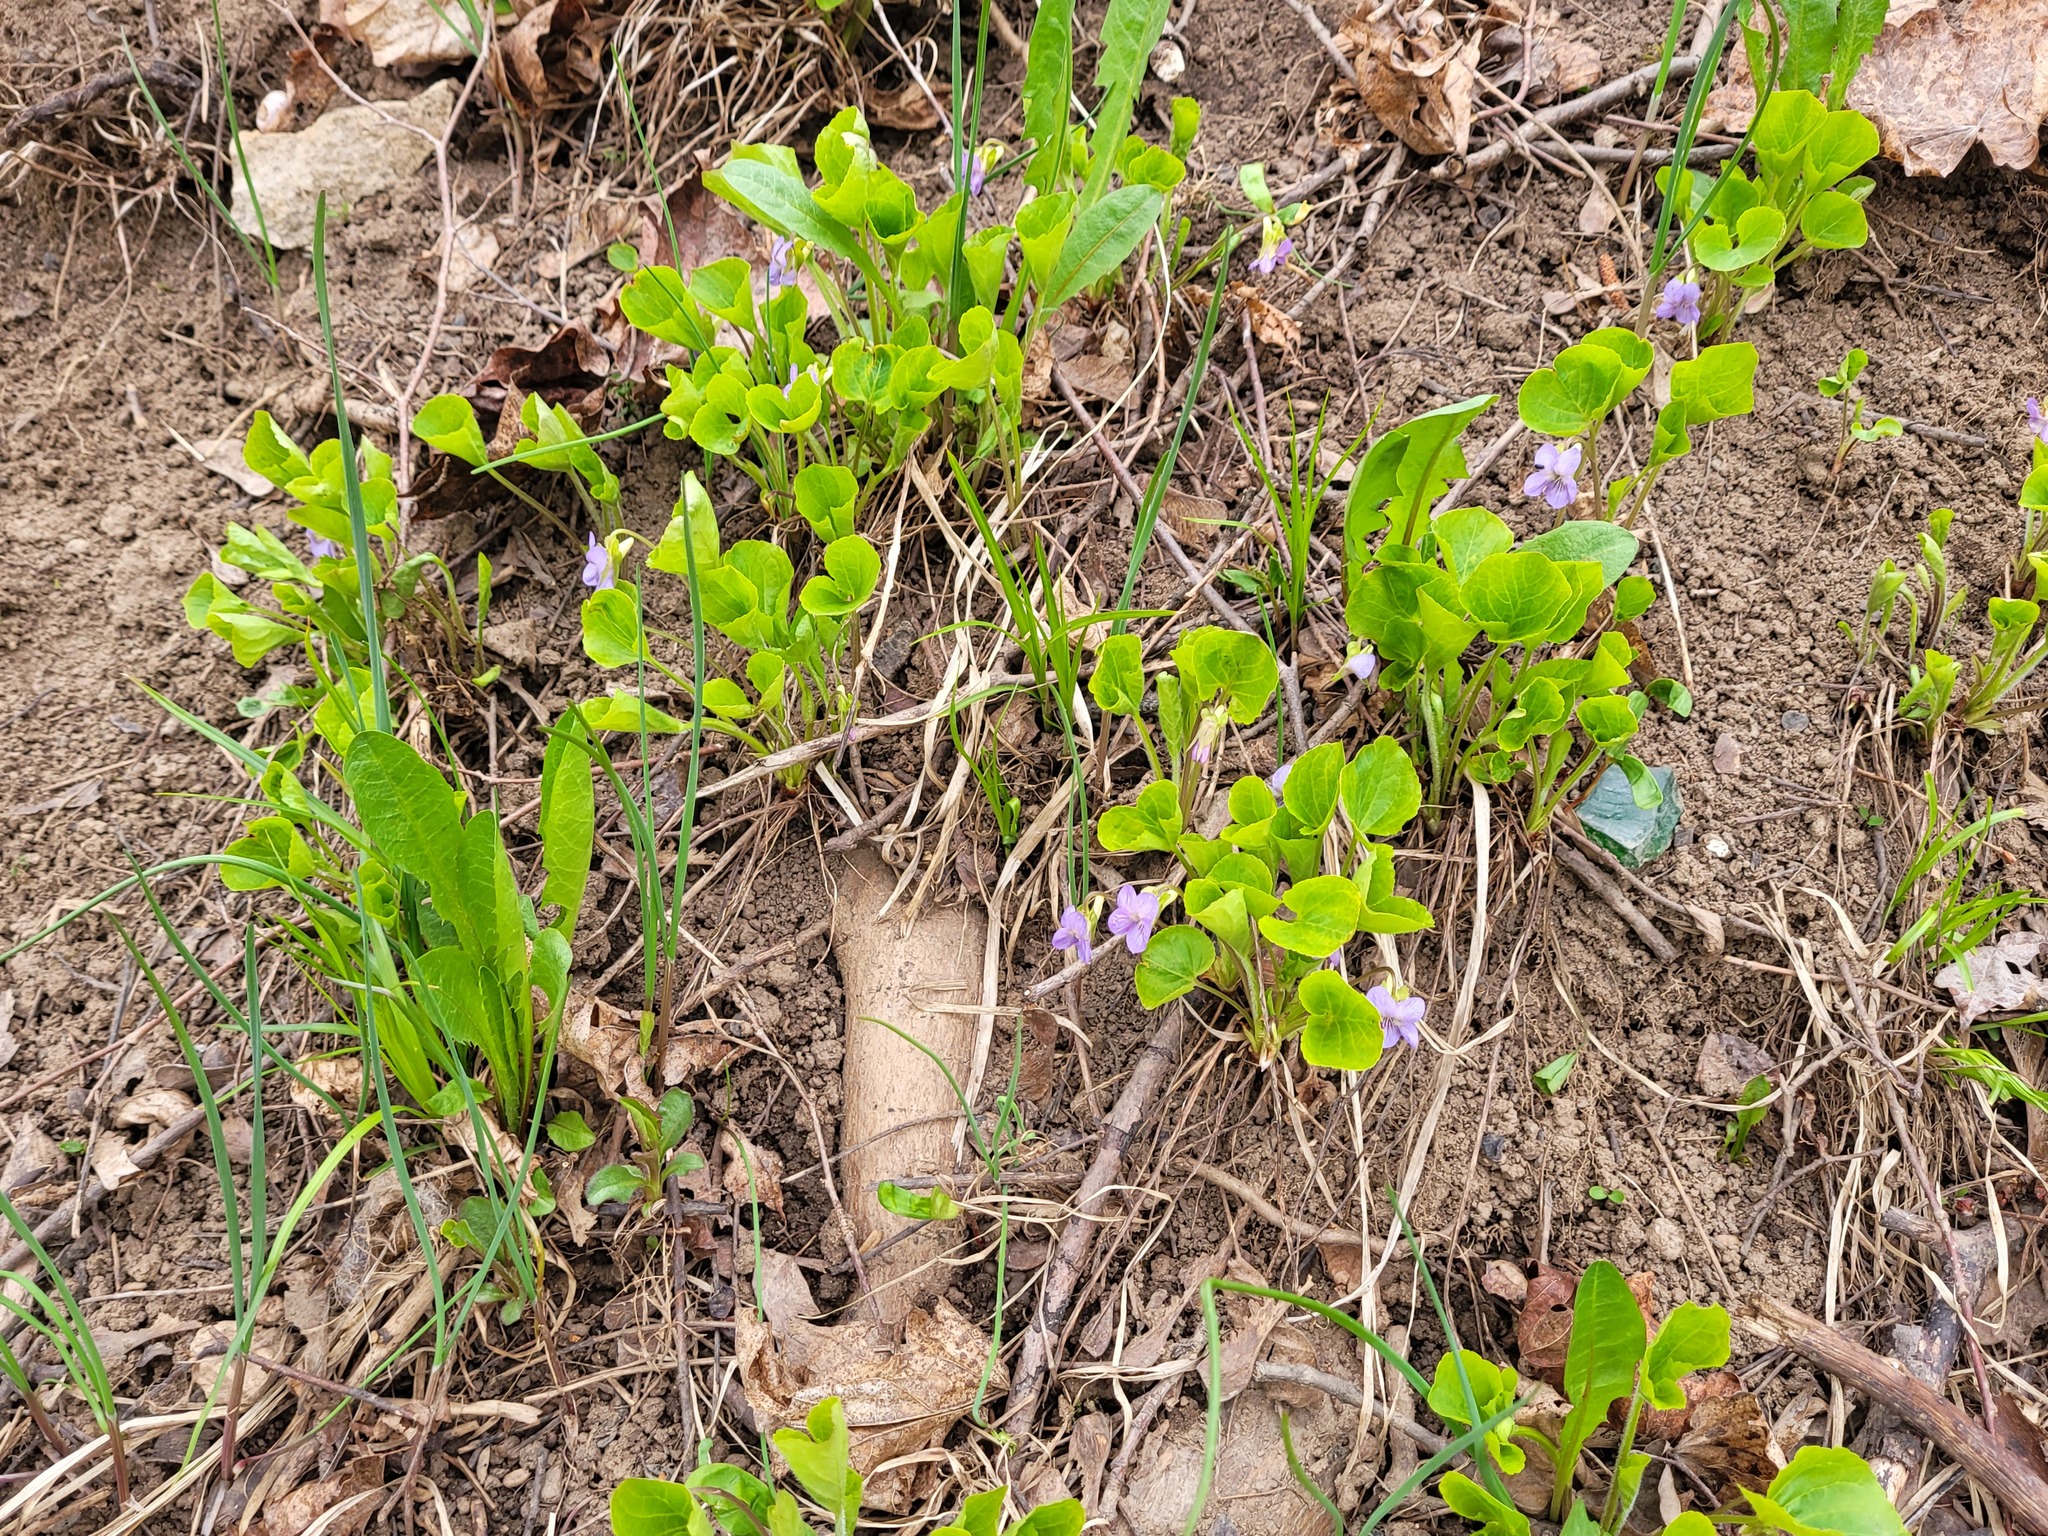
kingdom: Plantae
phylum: Tracheophyta
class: Magnoliopsida
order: Malpighiales
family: Violaceae
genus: Viola
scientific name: Viola mirabilis
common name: Wonder violet
